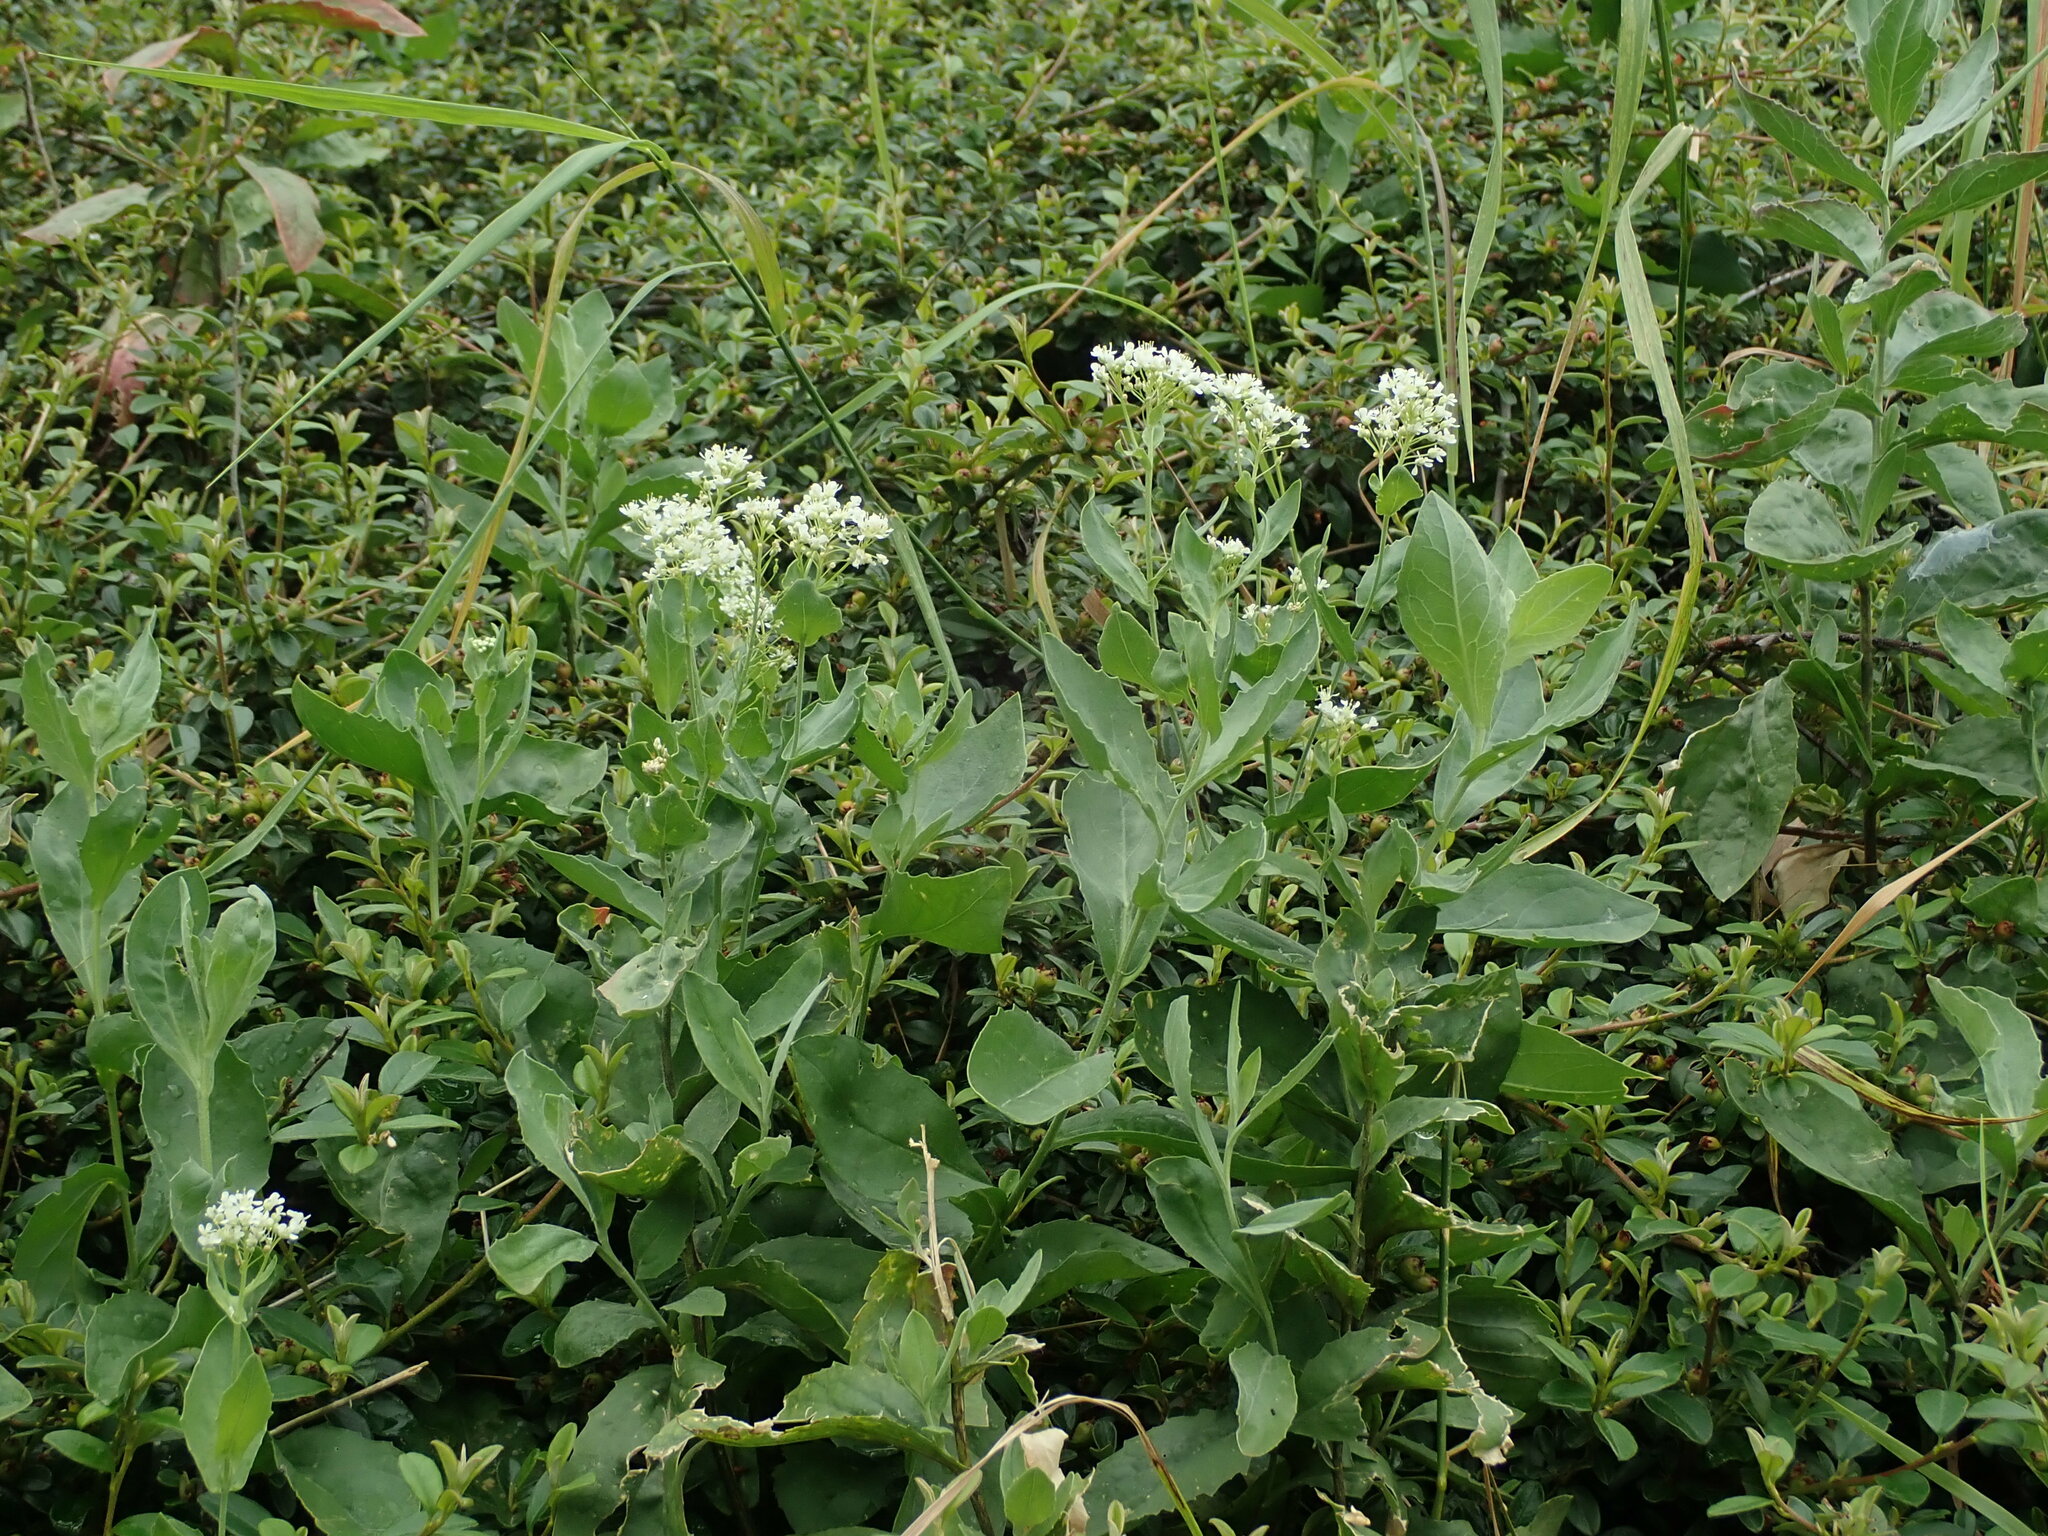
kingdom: Plantae
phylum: Tracheophyta
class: Magnoliopsida
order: Brassicales
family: Brassicaceae
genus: Lepidium
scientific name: Lepidium draba
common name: Hoary cress
